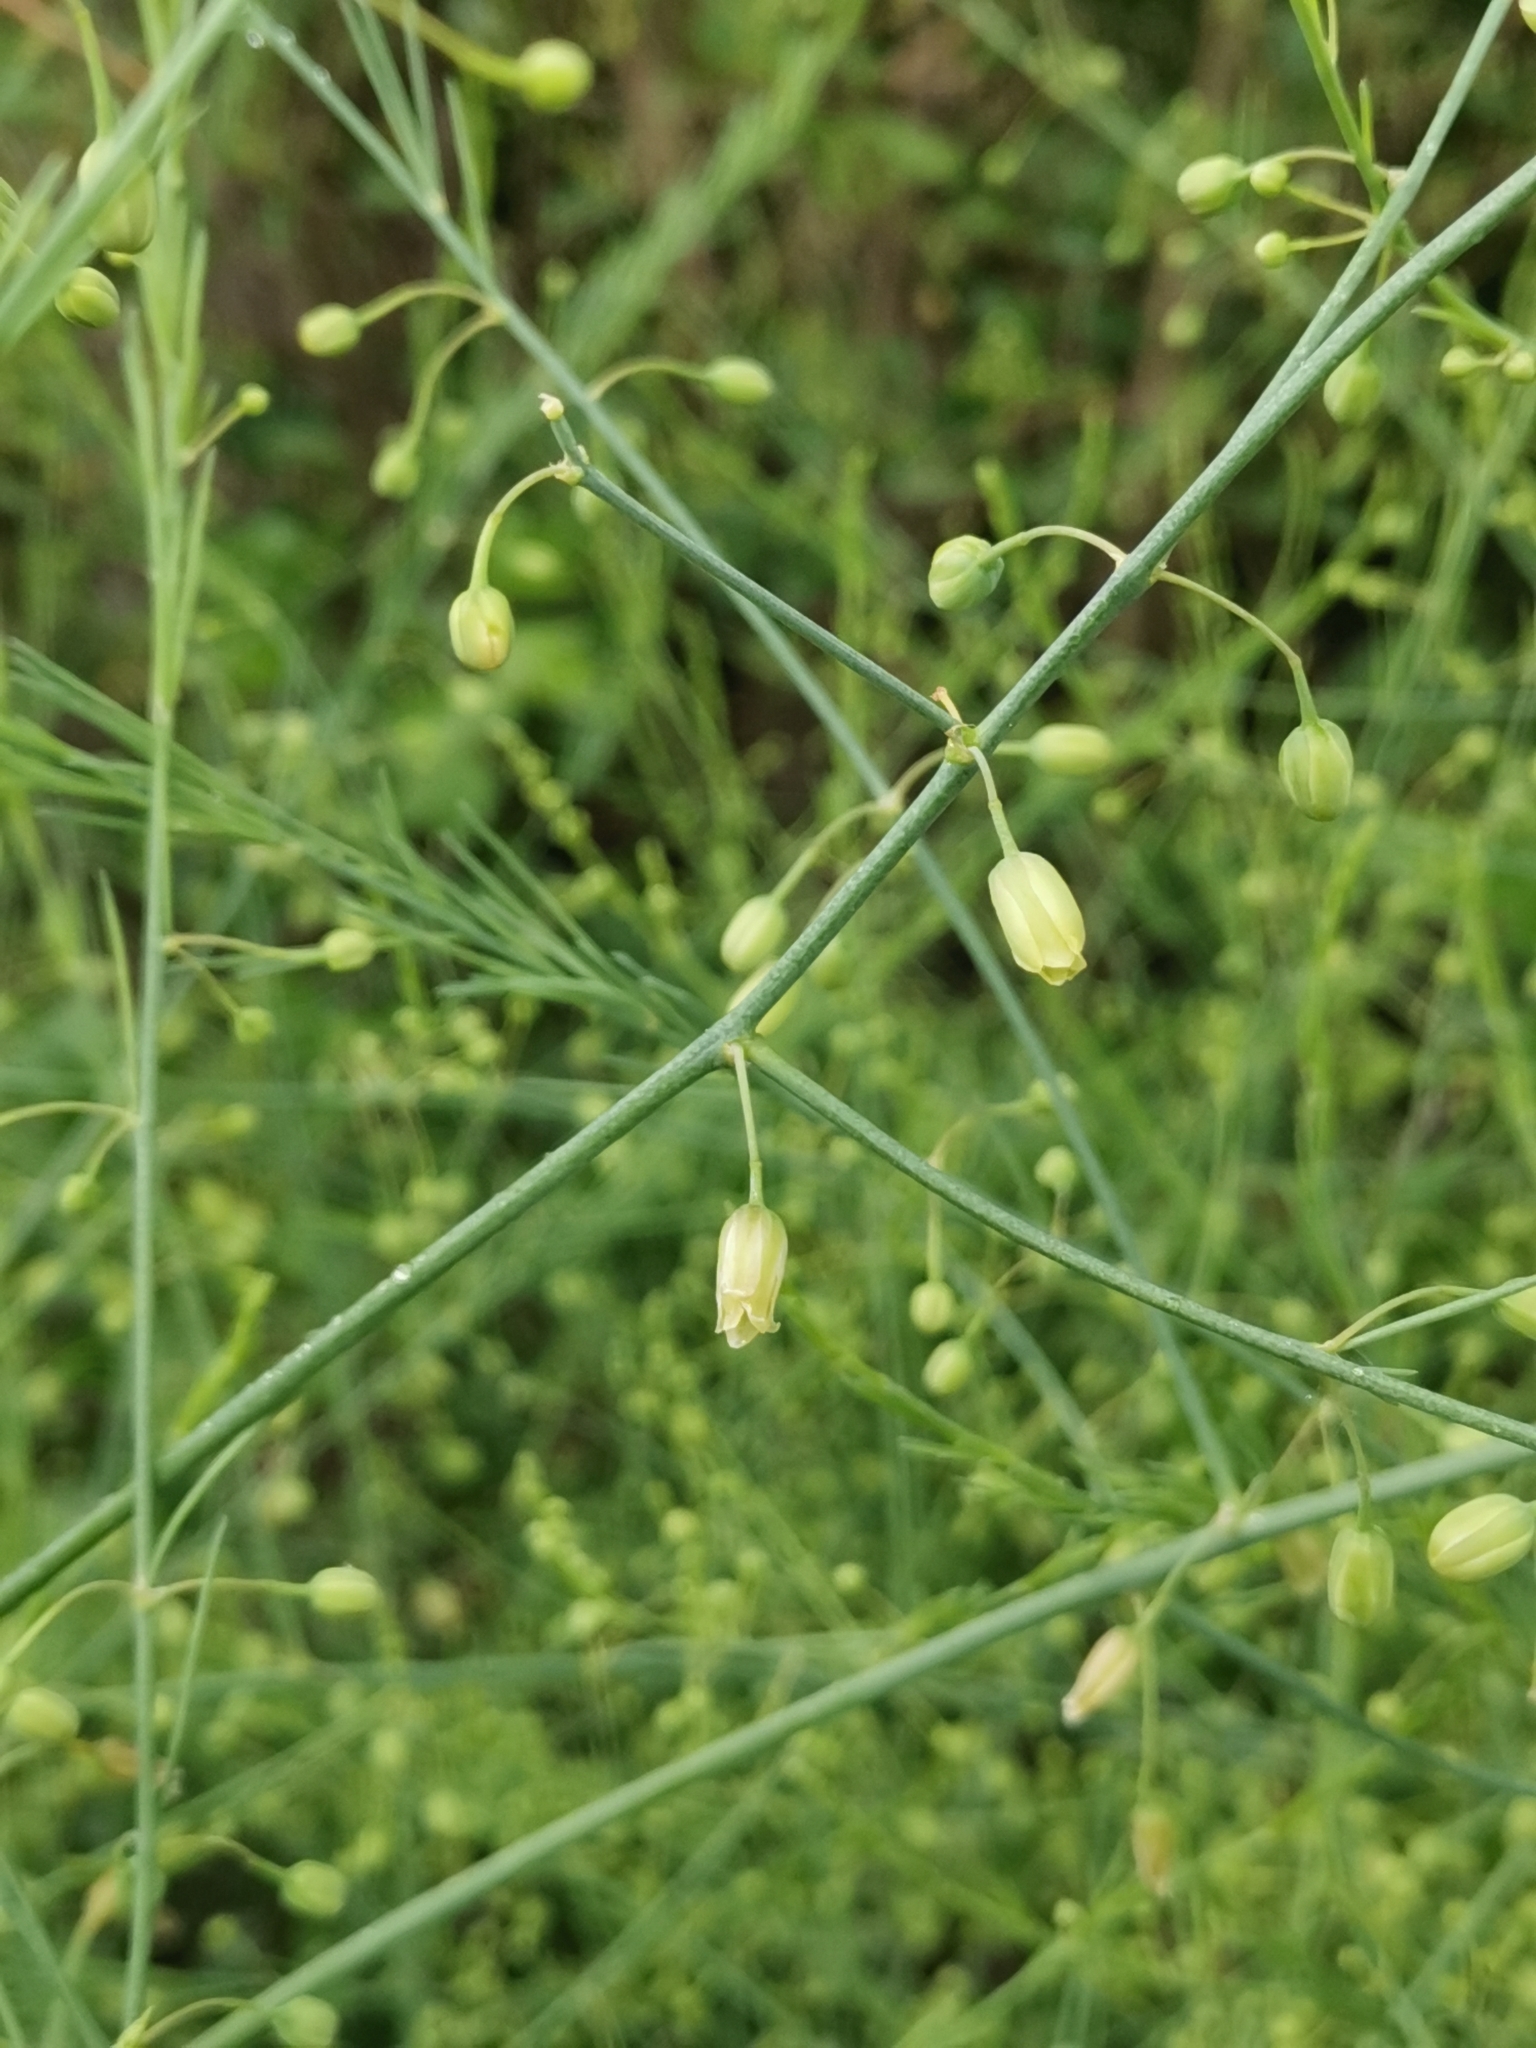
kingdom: Plantae
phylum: Tracheophyta
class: Liliopsida
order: Asparagales
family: Asparagaceae
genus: Asparagus
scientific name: Asparagus officinalis
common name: Garden asparagus
